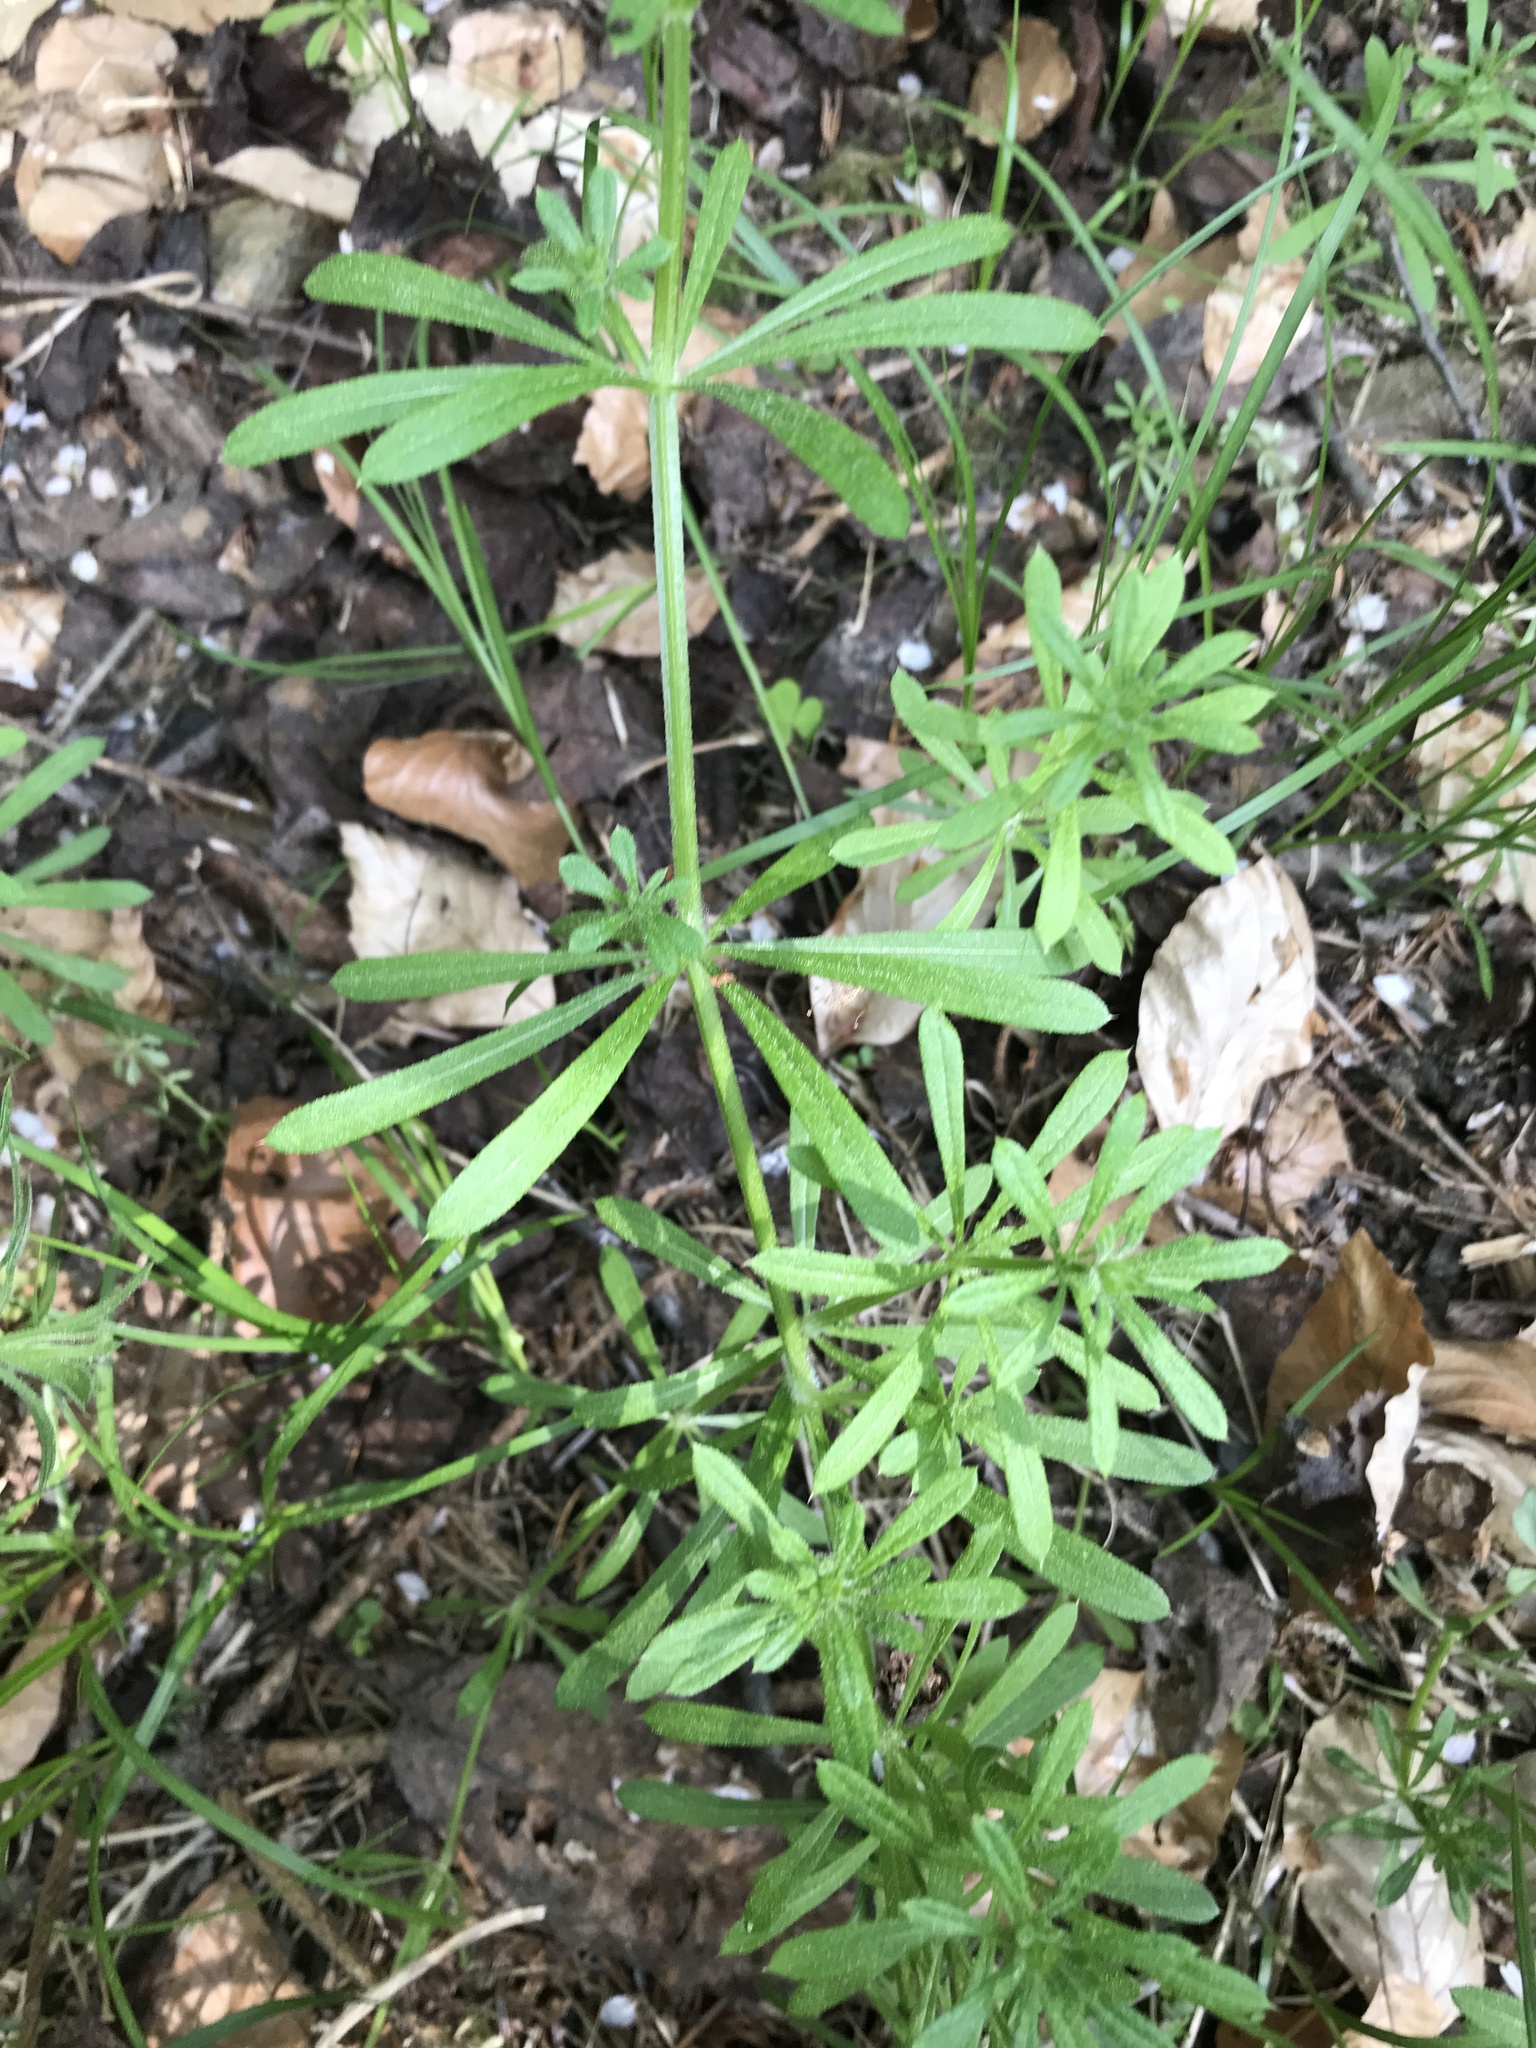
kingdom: Plantae
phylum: Tracheophyta
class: Magnoliopsida
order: Gentianales
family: Rubiaceae
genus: Galium
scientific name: Galium aparine
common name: Cleavers
